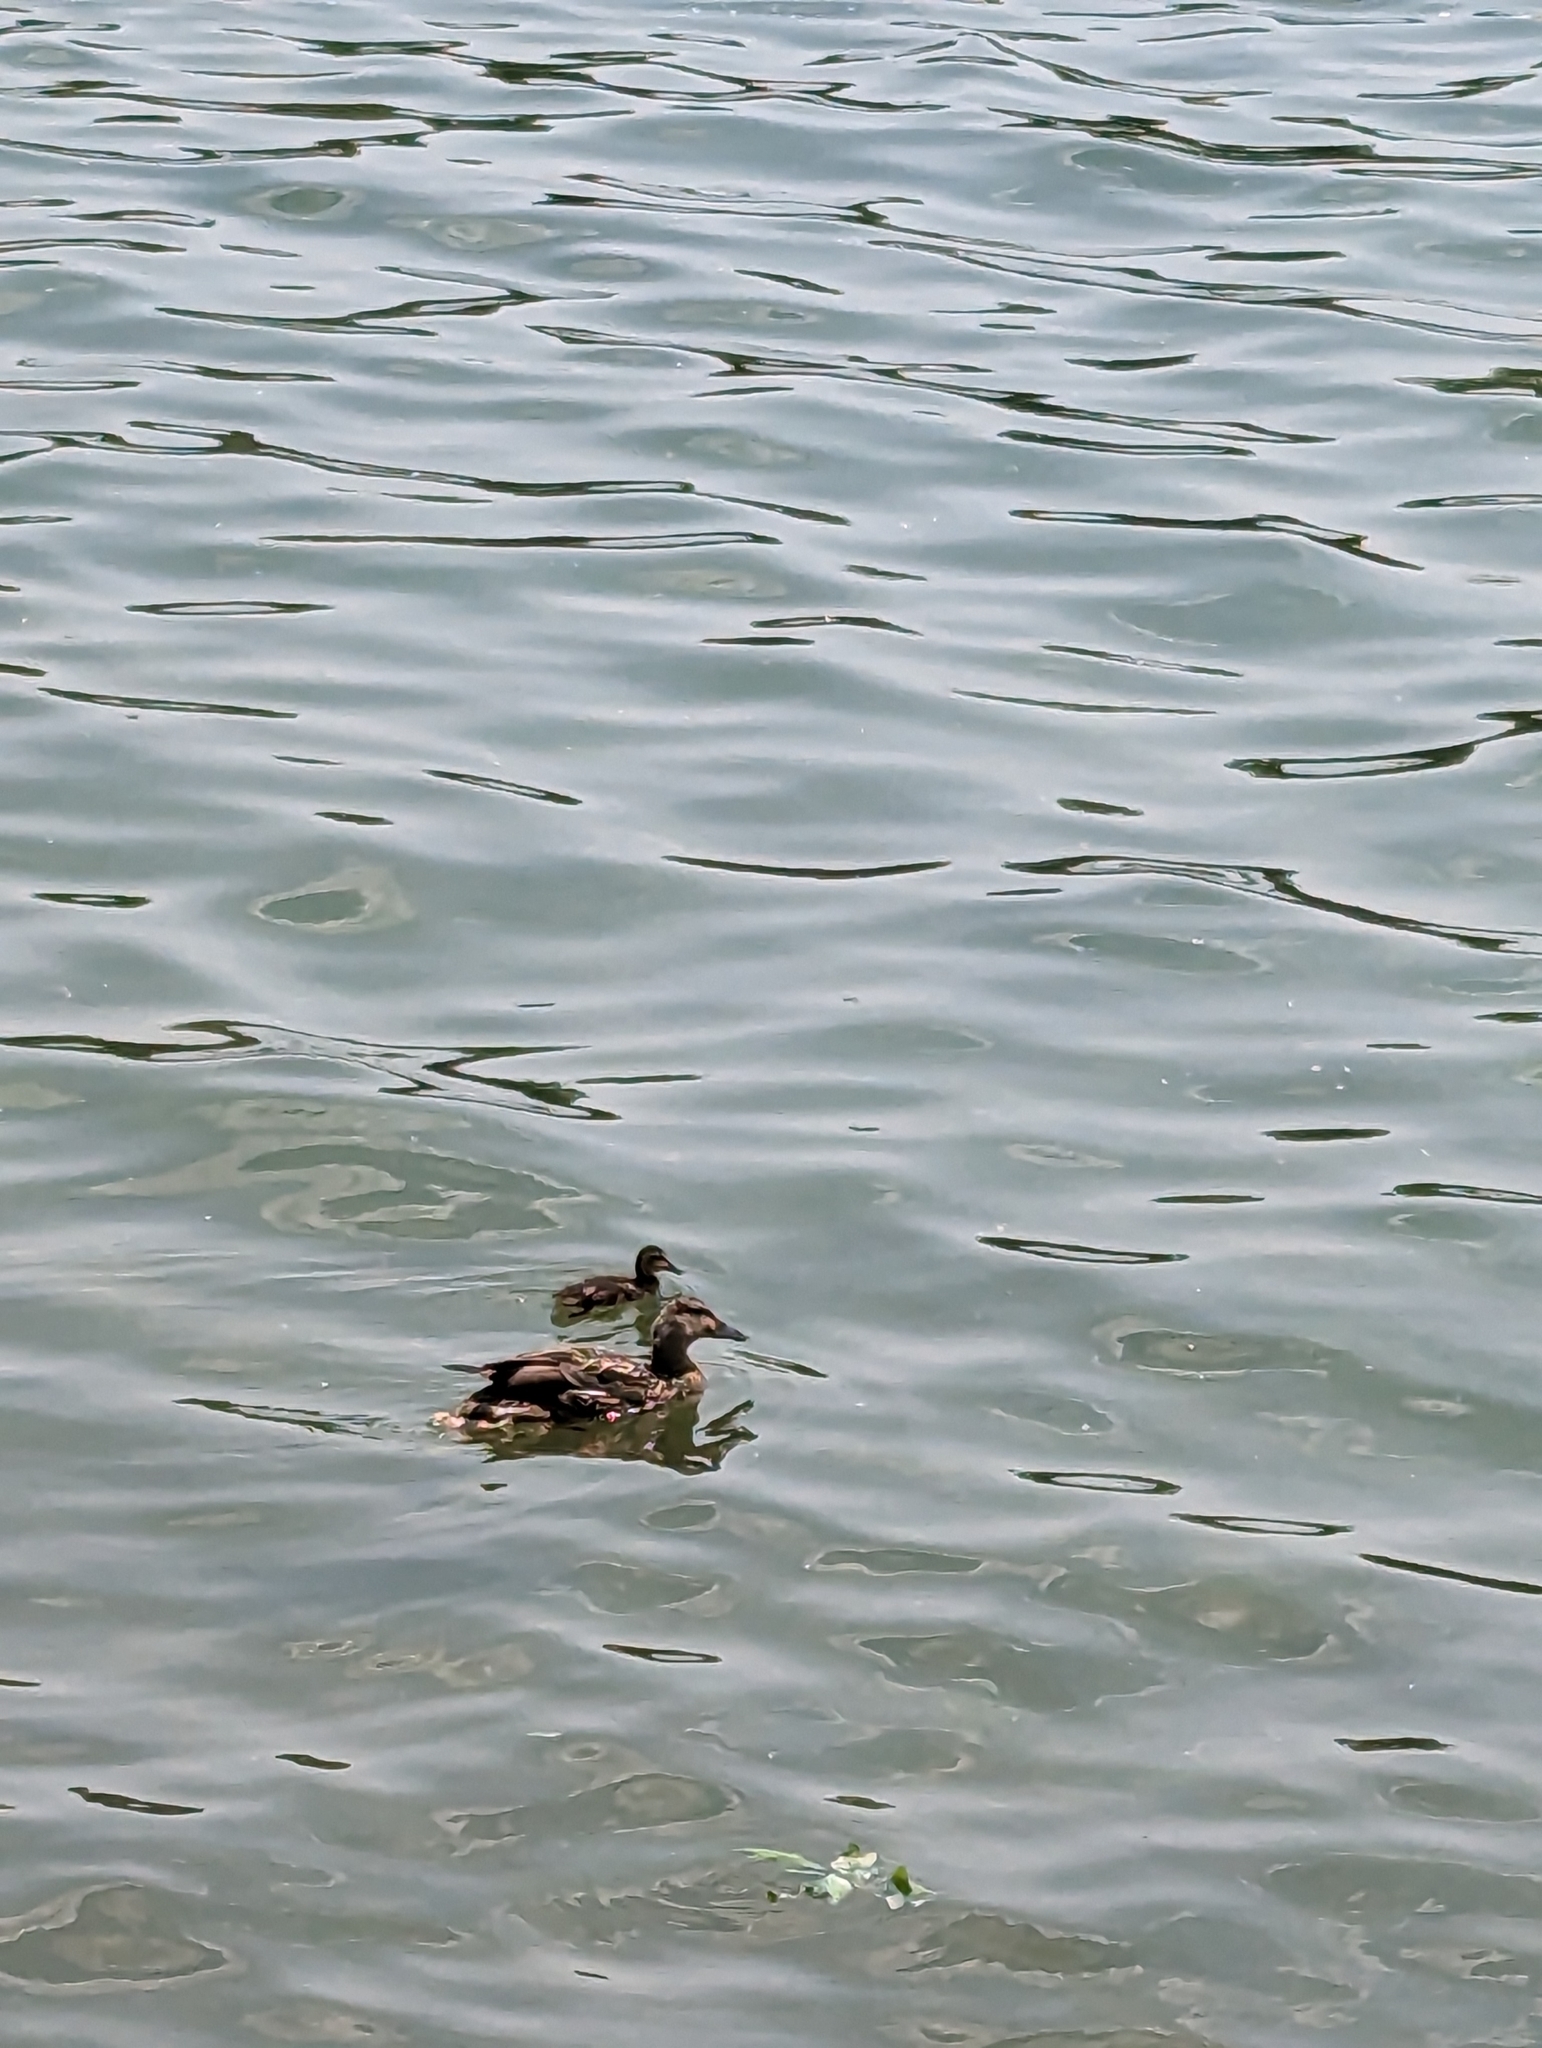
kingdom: Animalia
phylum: Chordata
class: Aves
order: Anseriformes
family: Anatidae
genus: Anas
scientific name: Anas platyrhynchos
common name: Mallard
